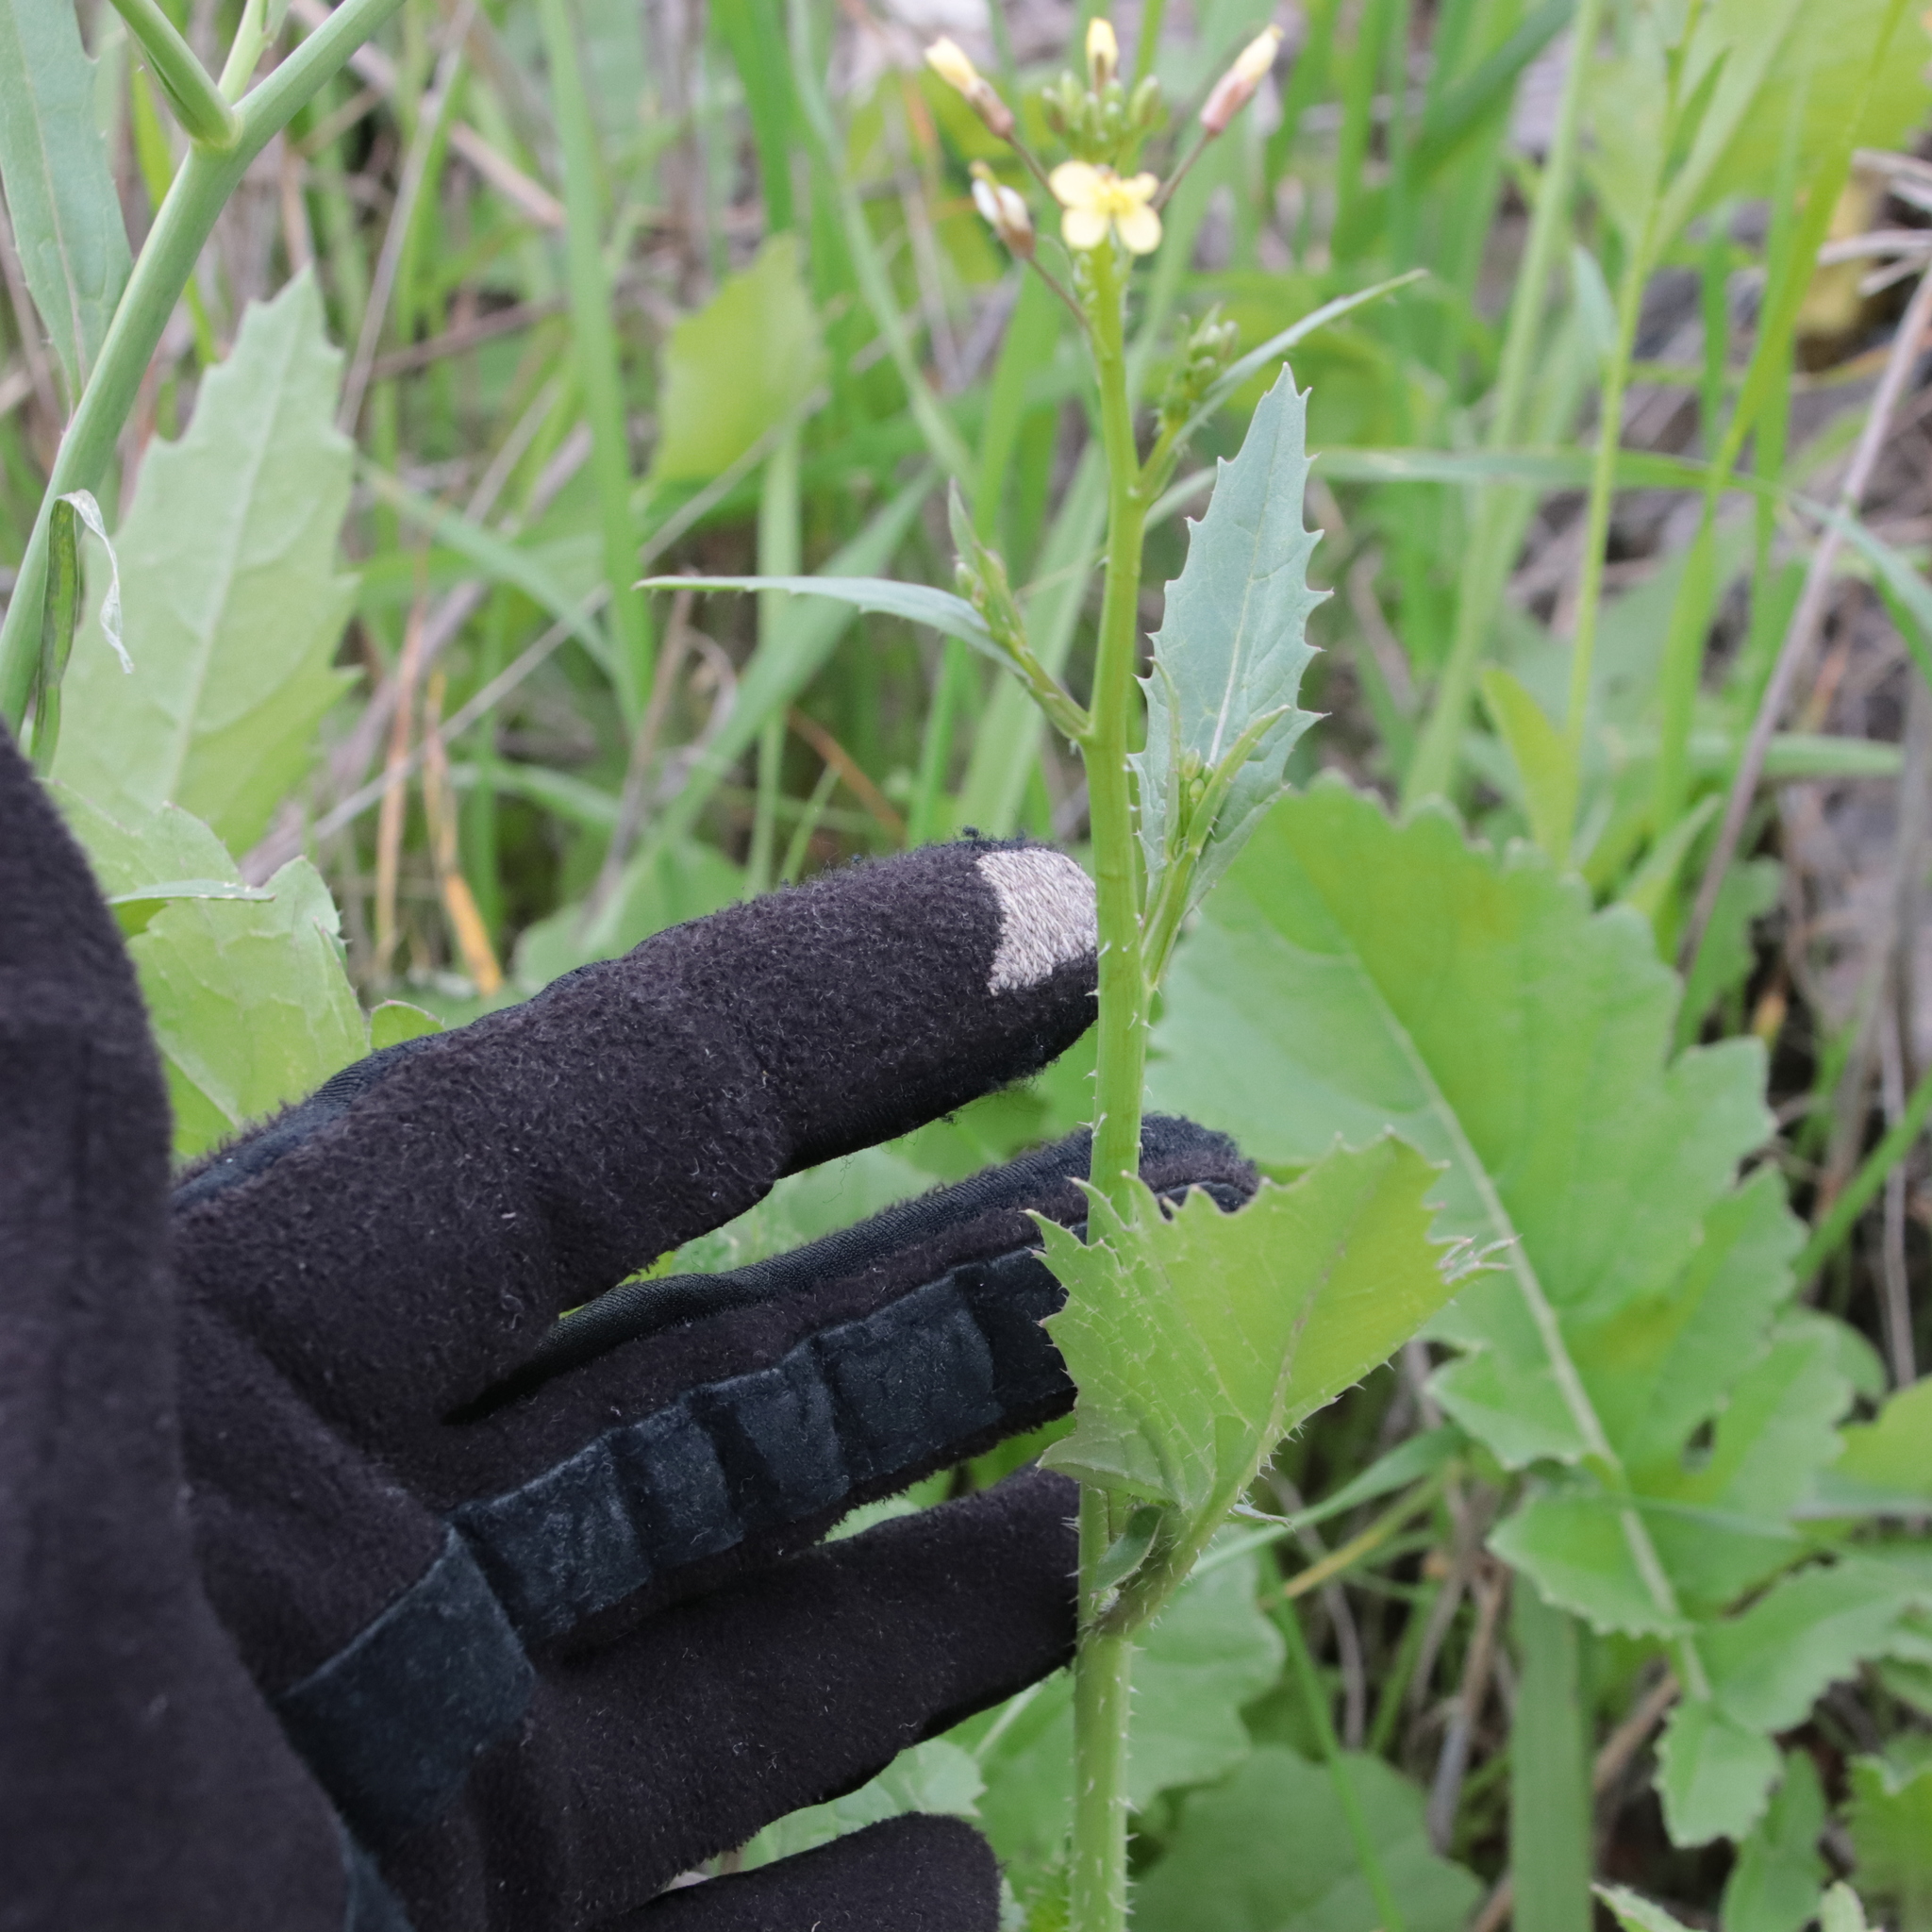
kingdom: Plantae
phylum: Tracheophyta
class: Magnoliopsida
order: Brassicales
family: Brassicaceae
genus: Brassica
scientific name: Brassica tournefortii
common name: Pale cabbage
